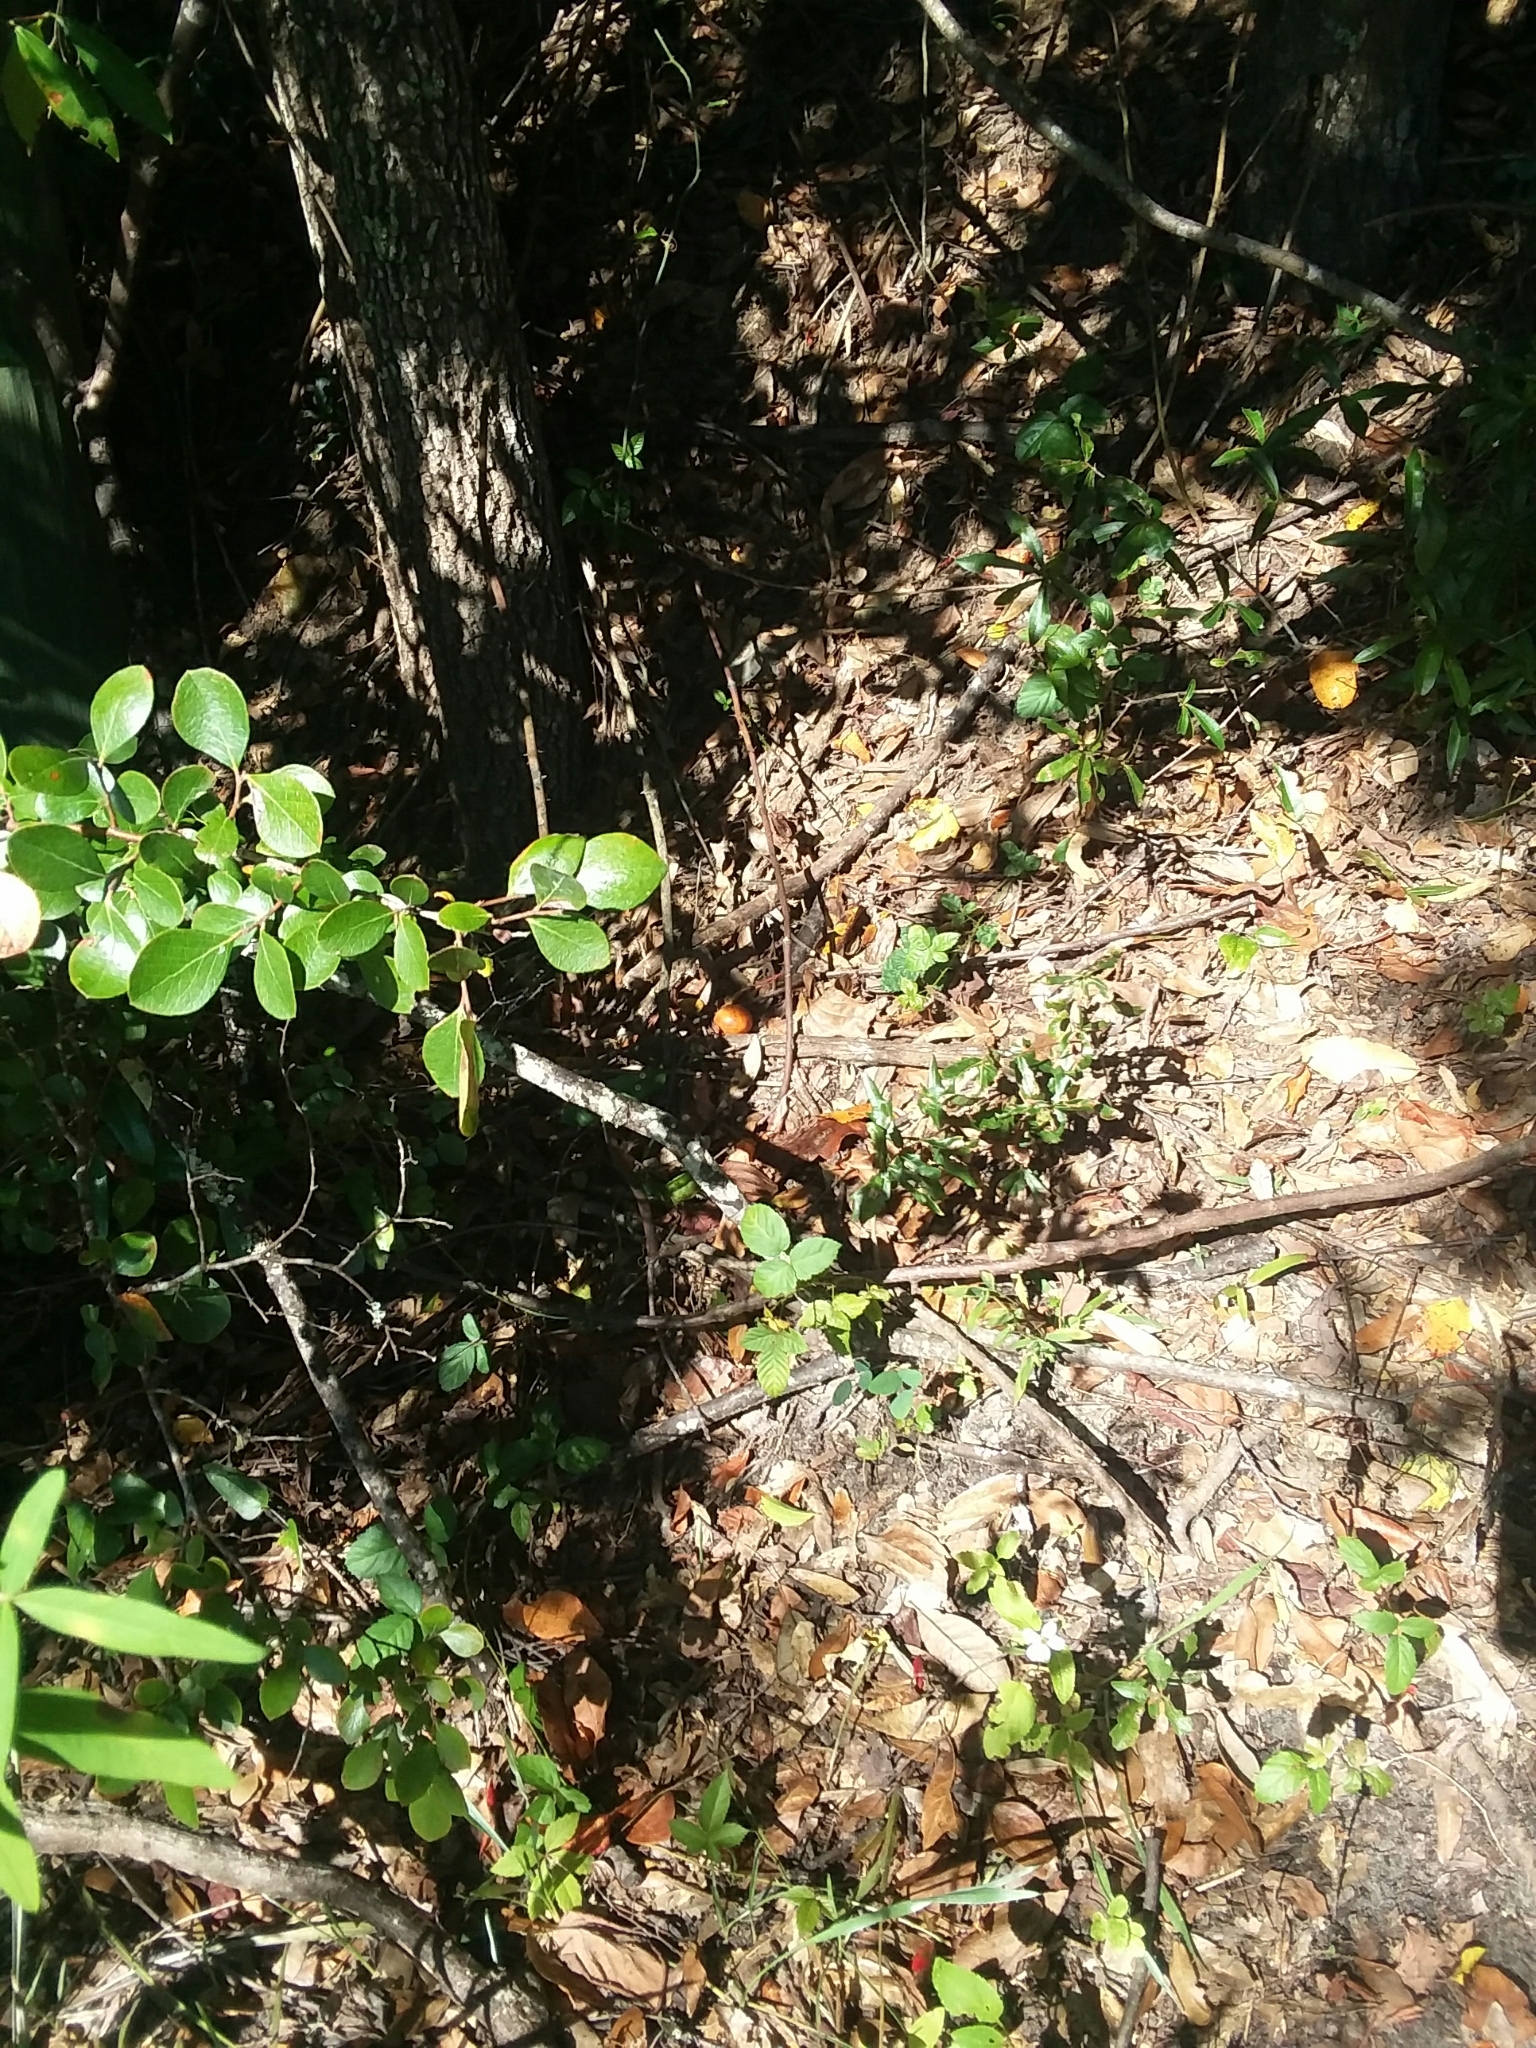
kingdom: Plantae
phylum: Tracheophyta
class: Magnoliopsida
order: Ericales
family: Ebenaceae
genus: Diospyros
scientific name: Diospyros virginiana
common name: Persimmon
